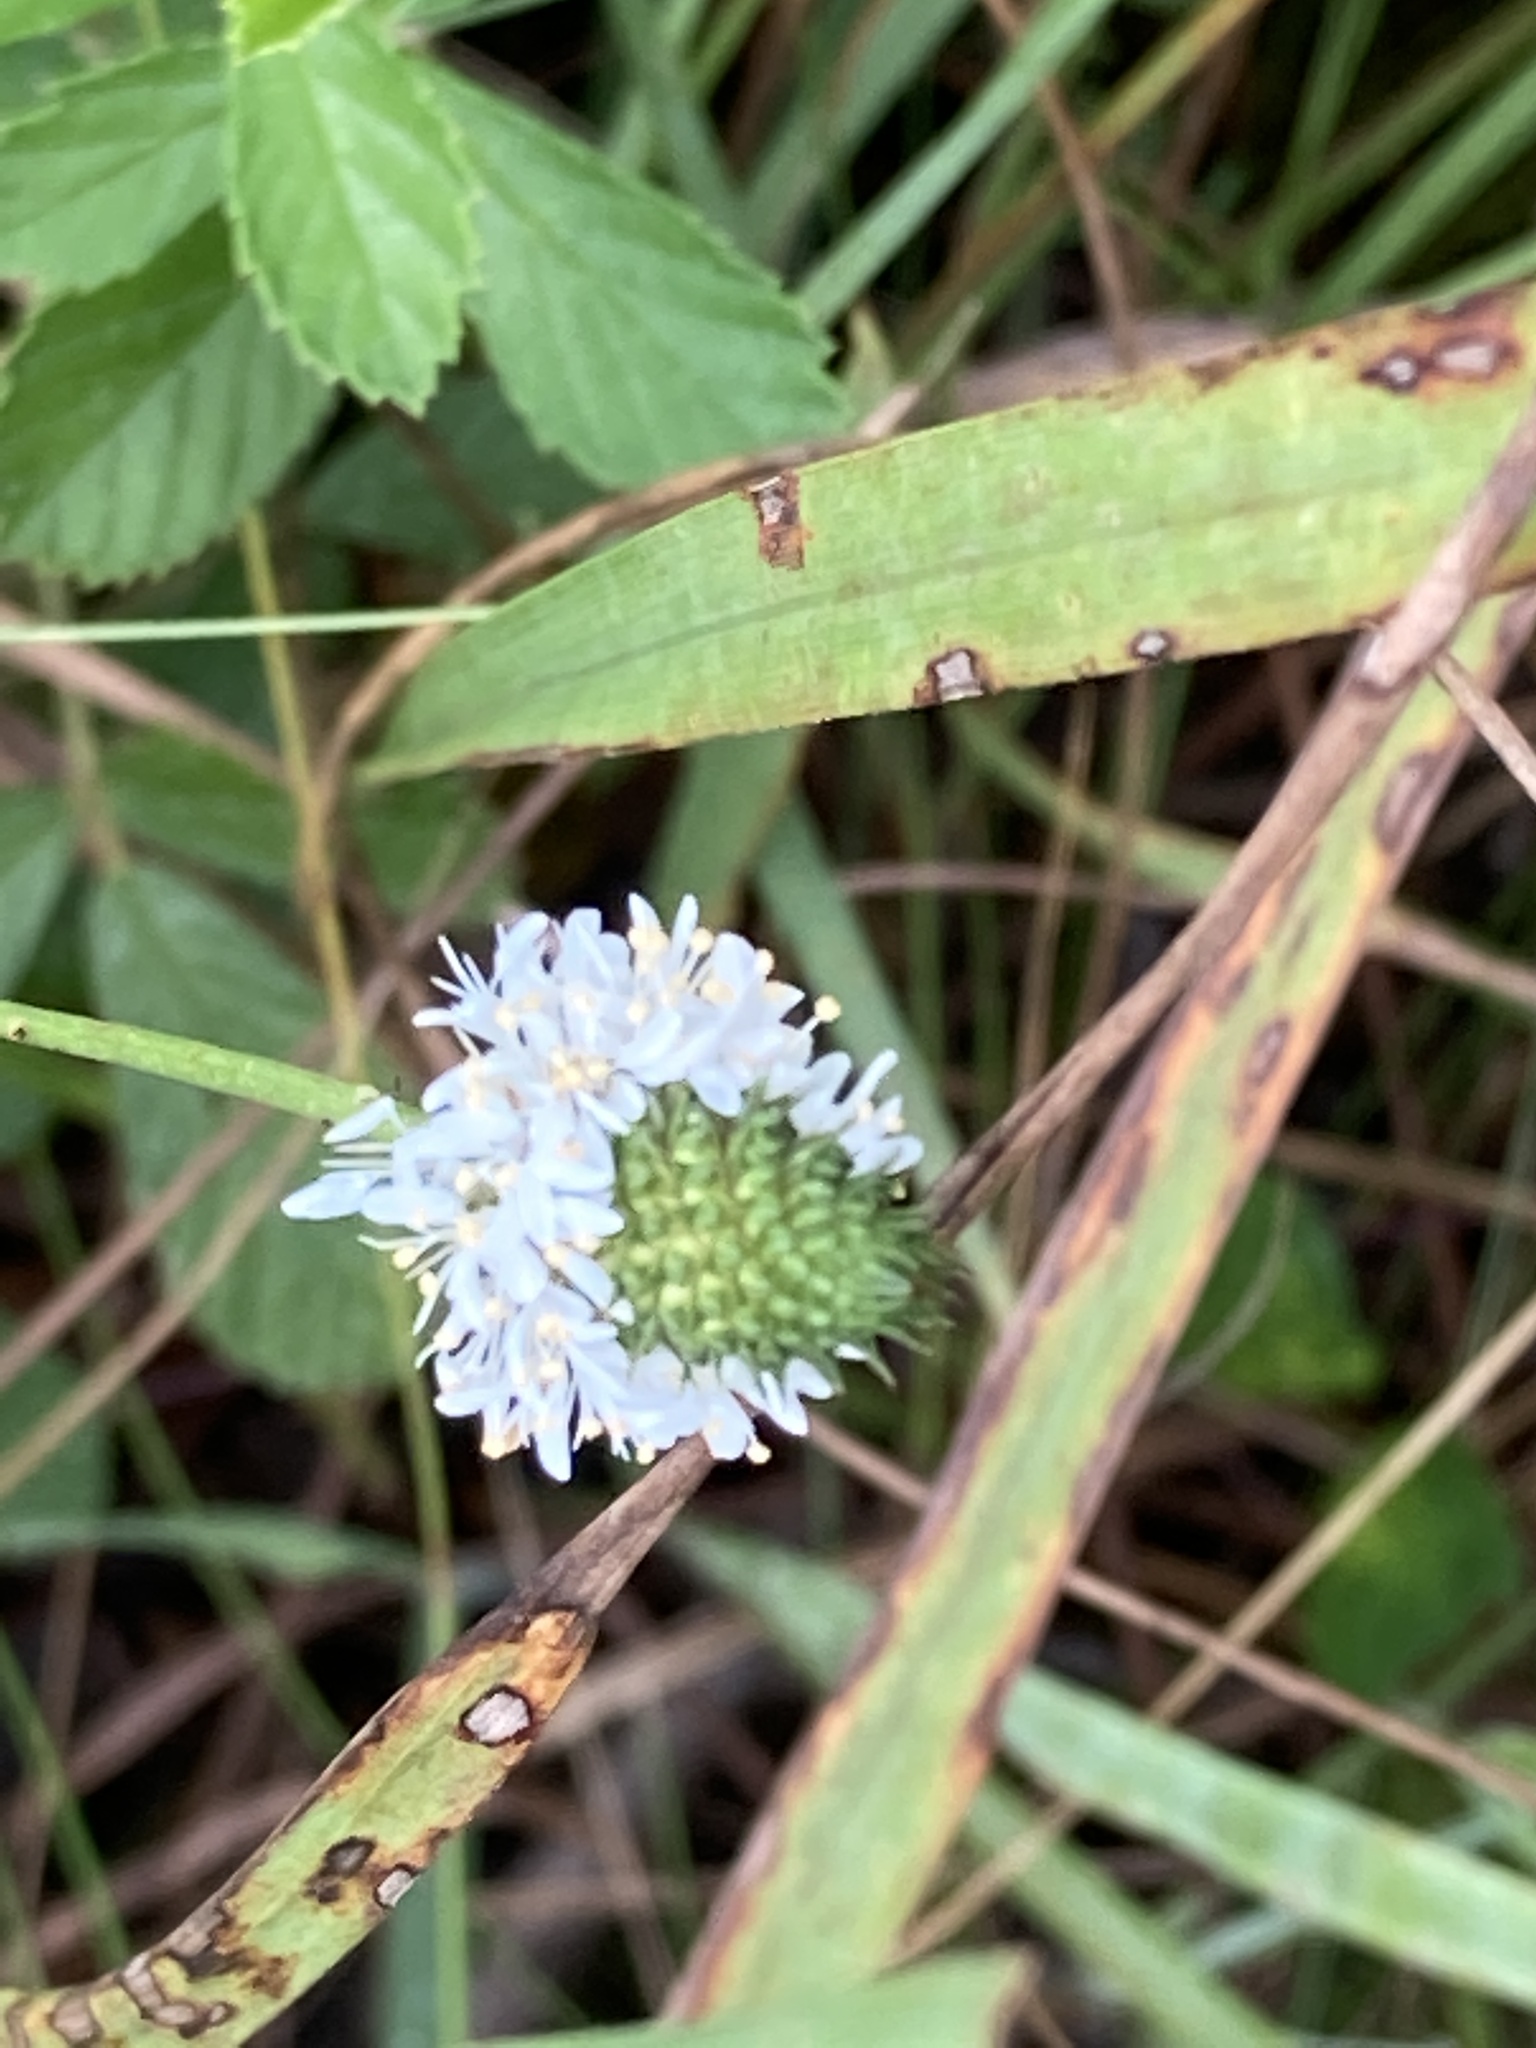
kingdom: Plantae
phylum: Tracheophyta
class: Magnoliopsida
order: Fabales
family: Fabaceae
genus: Dalea
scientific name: Dalea carnea
